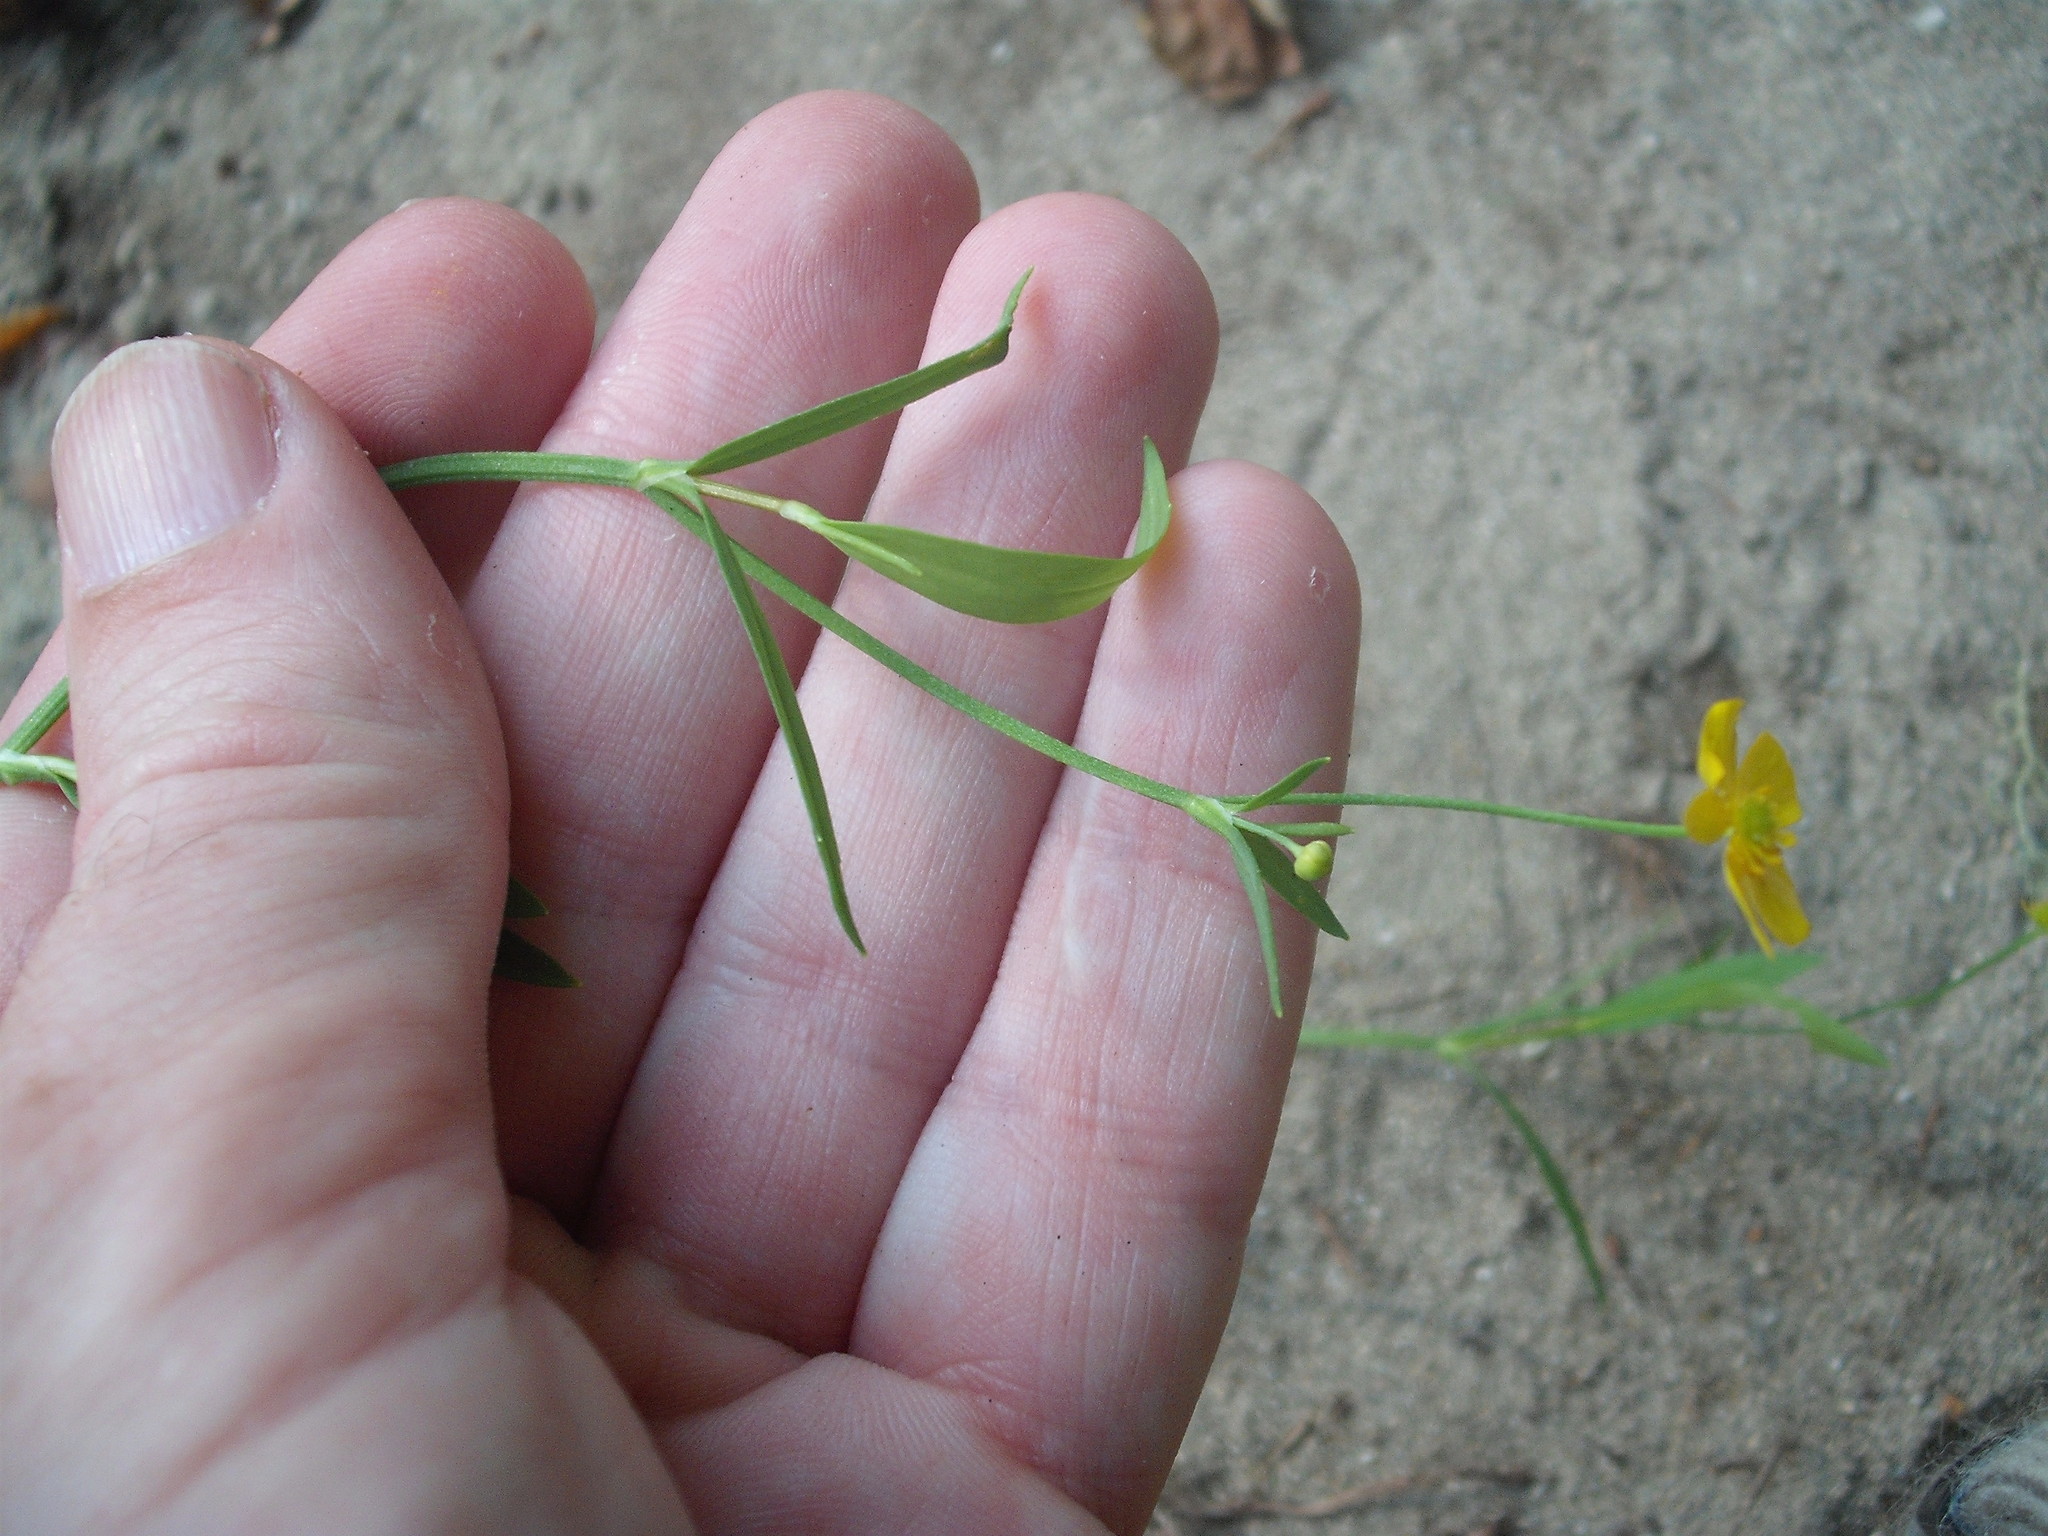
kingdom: Plantae
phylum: Tracheophyta
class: Magnoliopsida
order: Ranunculales
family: Ranunculaceae
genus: Ranunculus
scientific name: Ranunculus flammula
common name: Lesser spearwort
